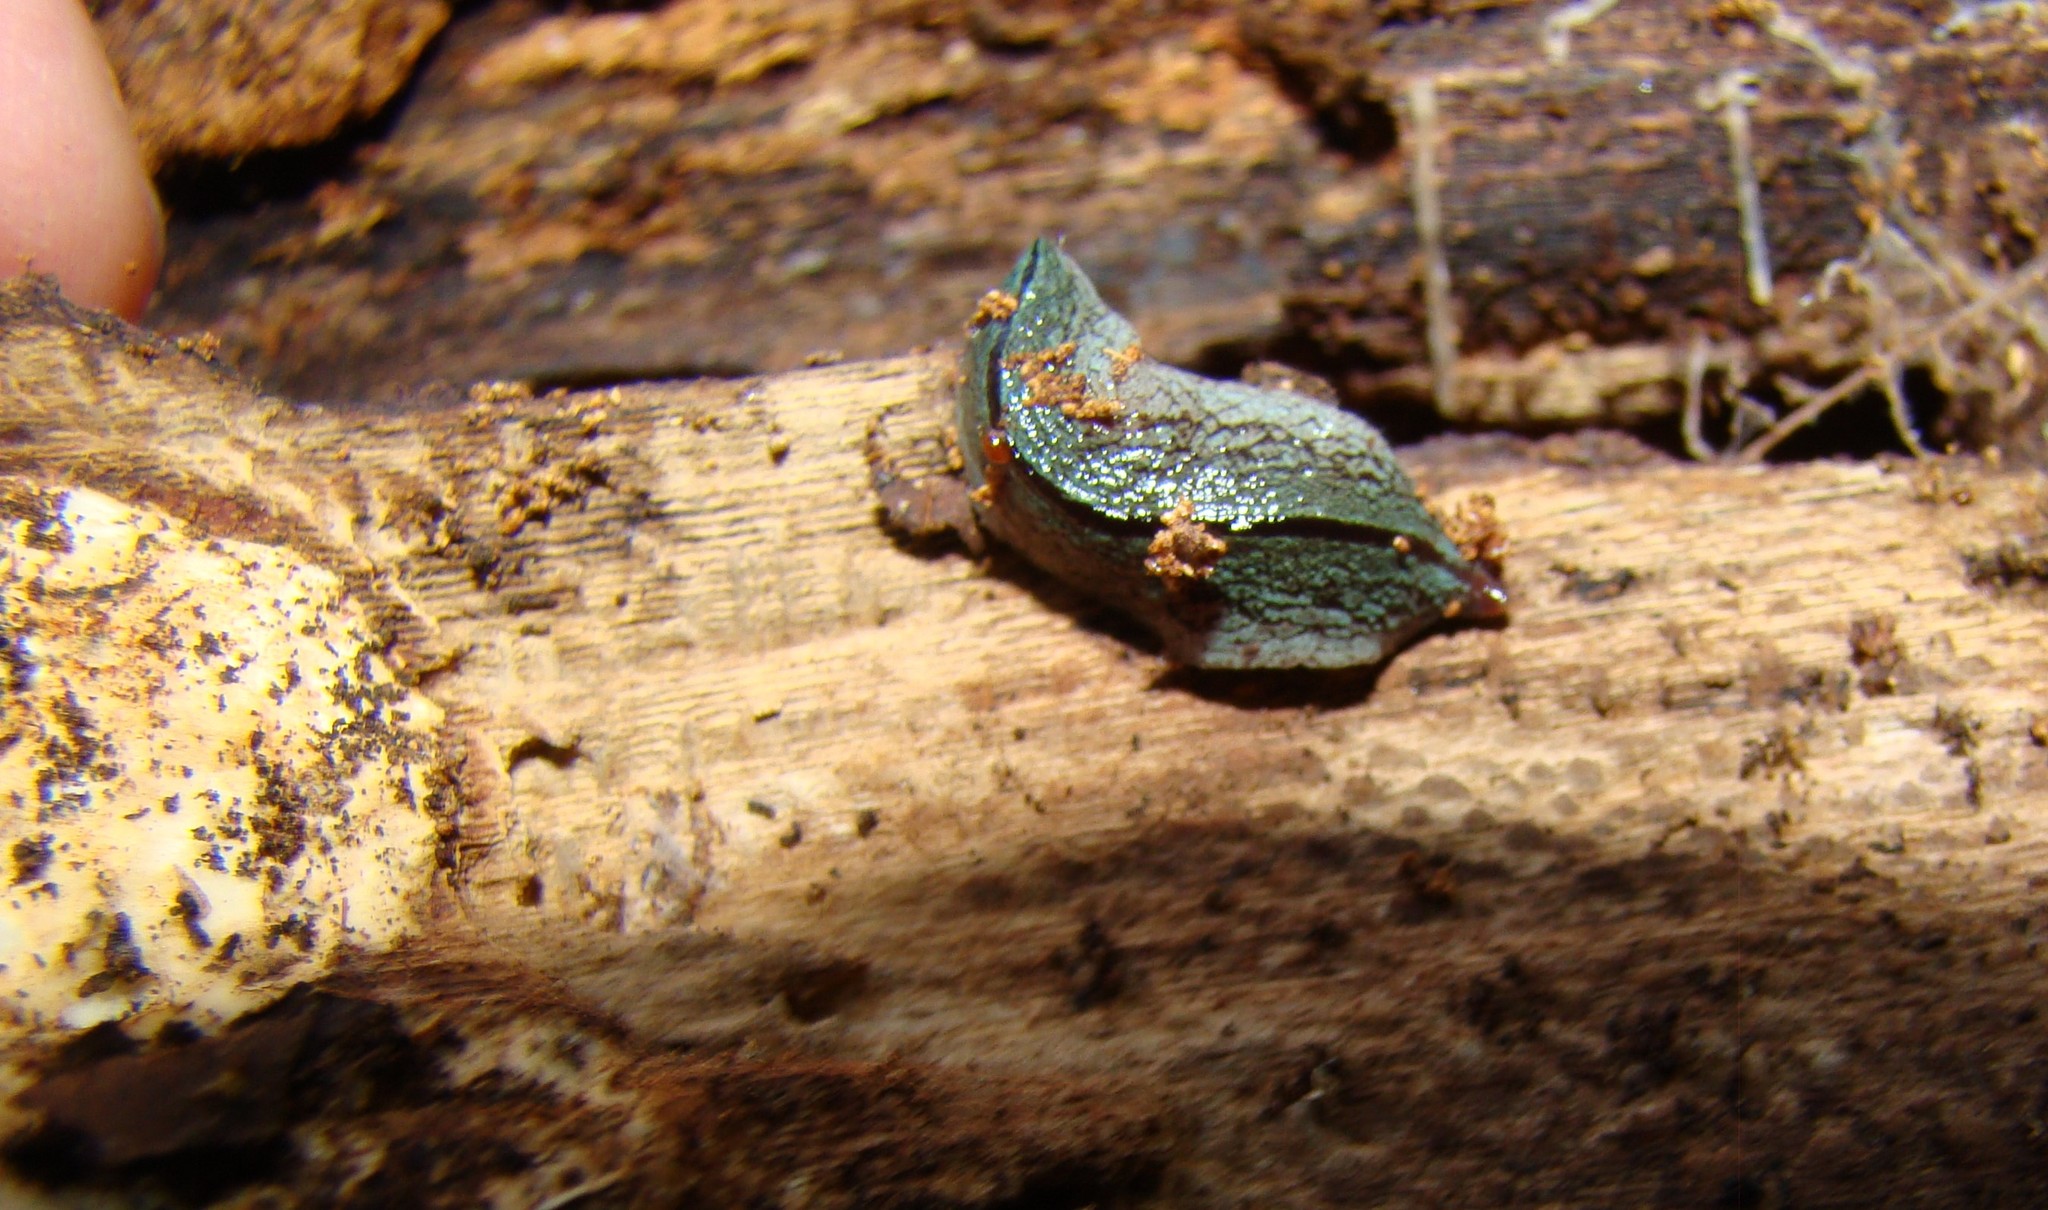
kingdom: Animalia
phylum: Platyhelminthes
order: Tricladida
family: Geoplanidae
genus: Artioposthia
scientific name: Artioposthia exulans
